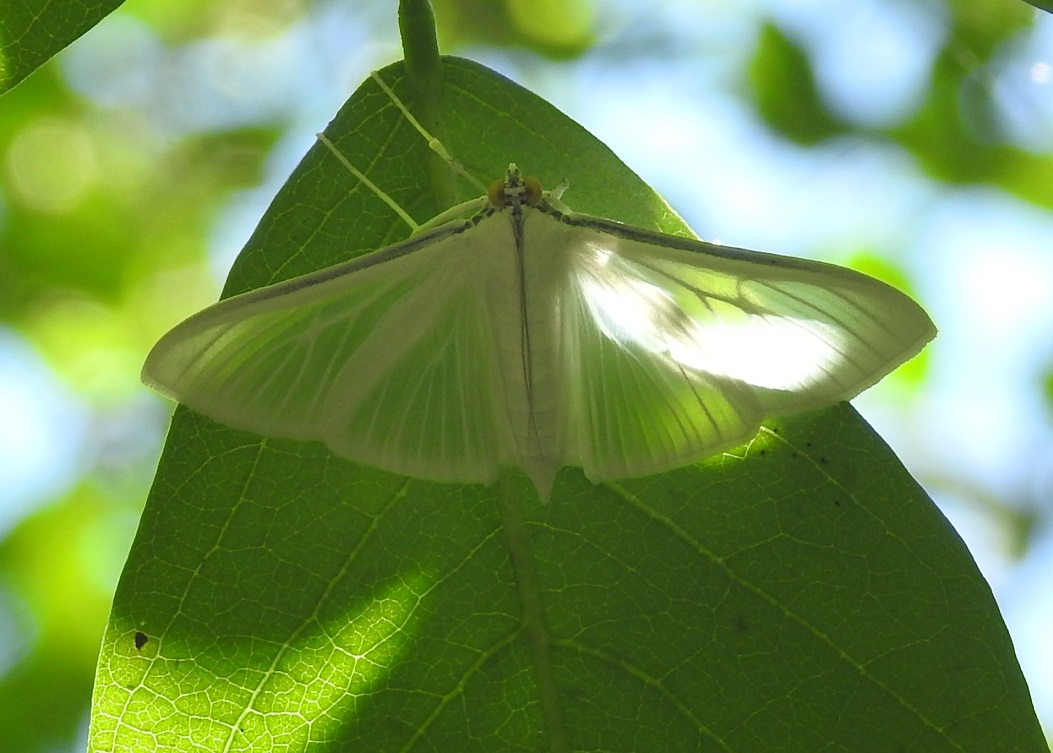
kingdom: Animalia
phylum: Arthropoda
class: Insecta
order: Lepidoptera
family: Crambidae
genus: Palpita
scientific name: Palpita flegia
